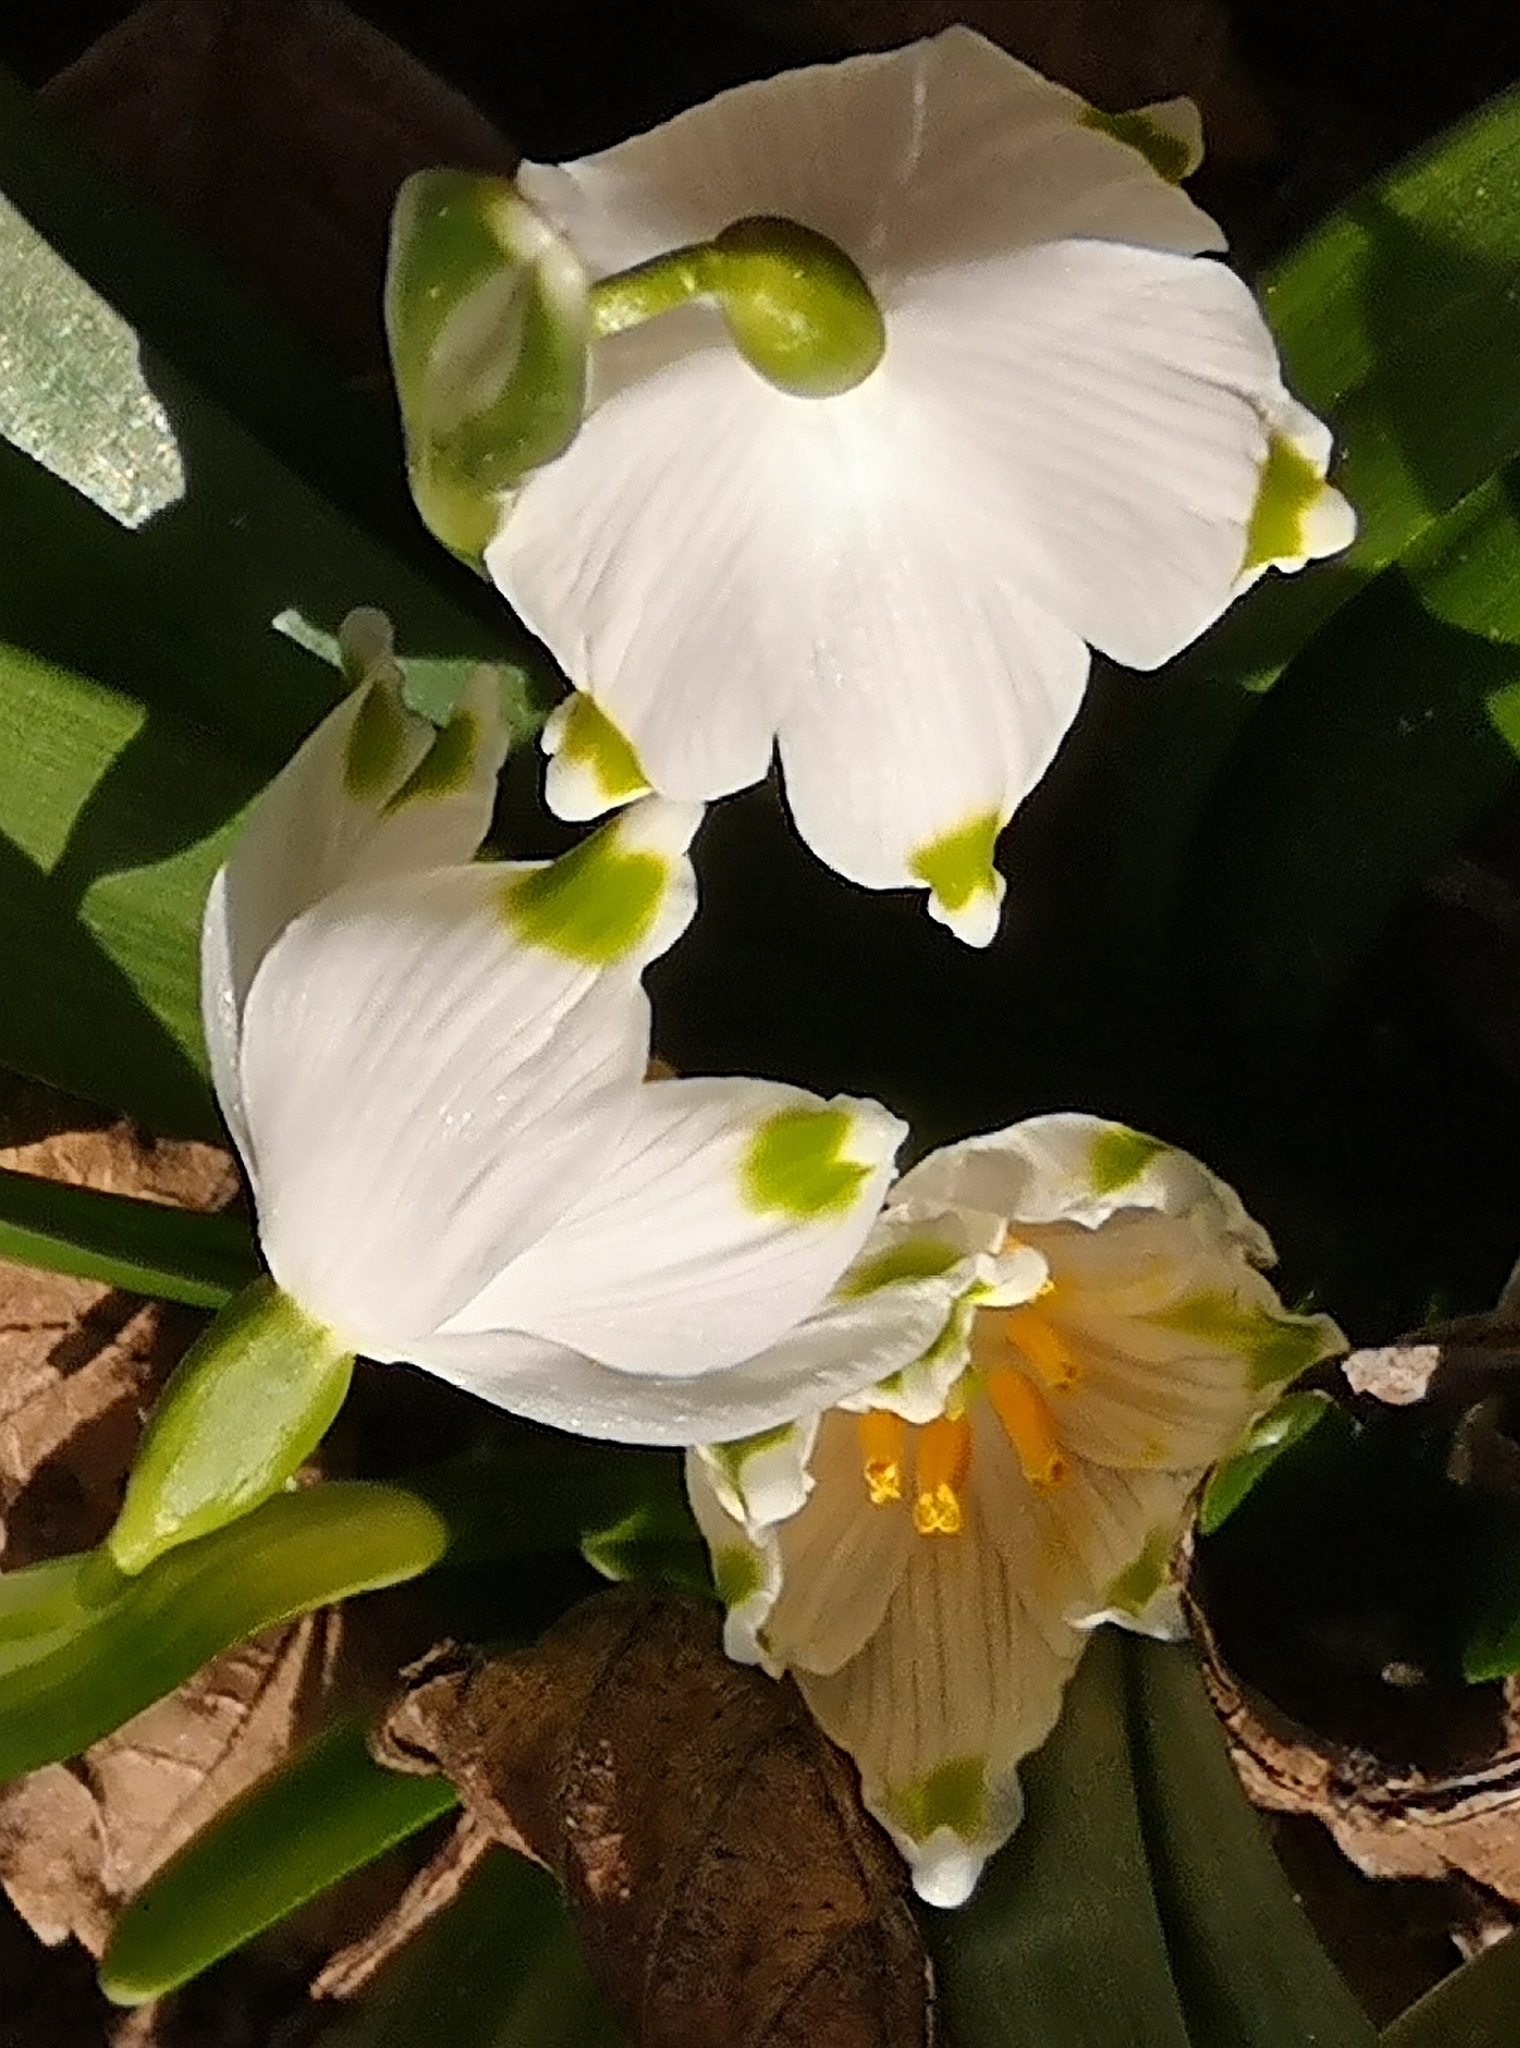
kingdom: Plantae
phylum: Tracheophyta
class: Liliopsida
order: Asparagales
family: Amaryllidaceae
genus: Leucojum
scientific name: Leucojum vernum
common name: Spring snowflake
